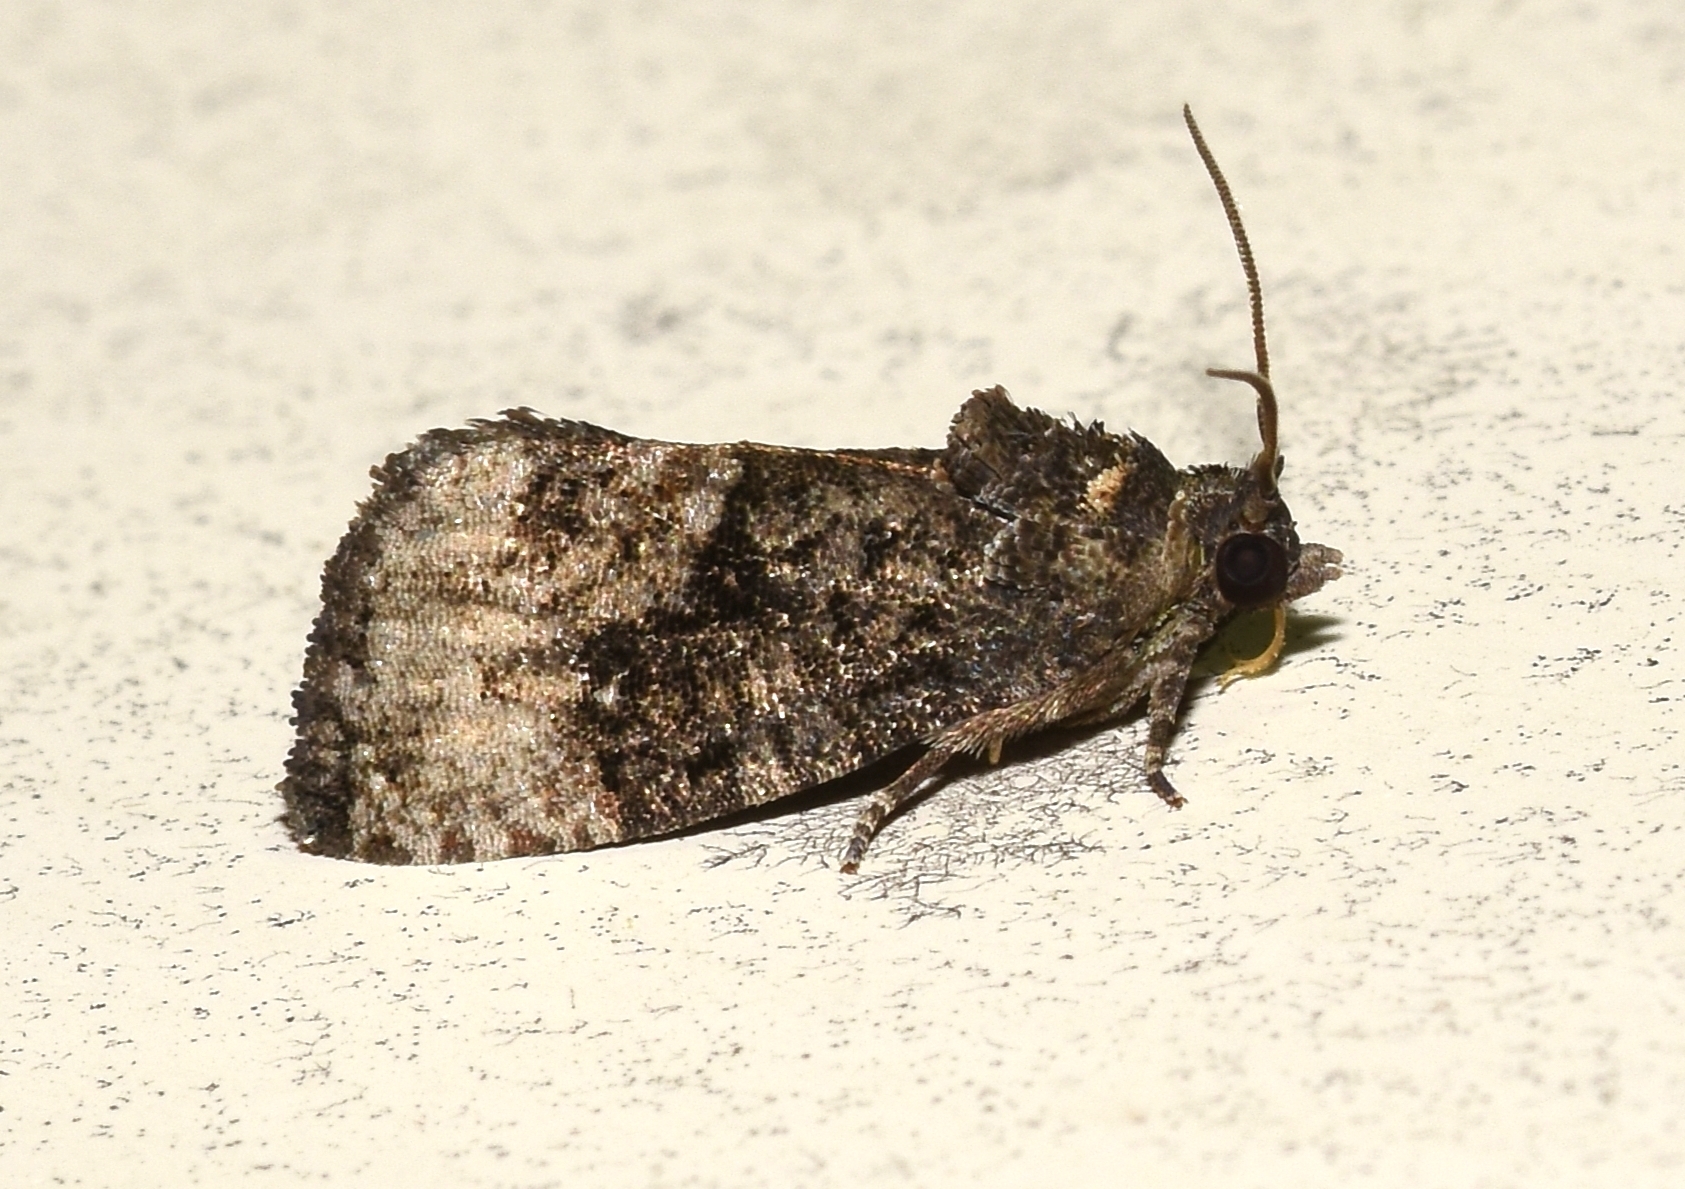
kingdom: Animalia
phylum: Arthropoda
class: Insecta
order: Lepidoptera
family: Tortricidae
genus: Gymnandrosoma
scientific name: Gymnandrosoma punctidiscanum
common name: Dotted ecdytolopha moth
